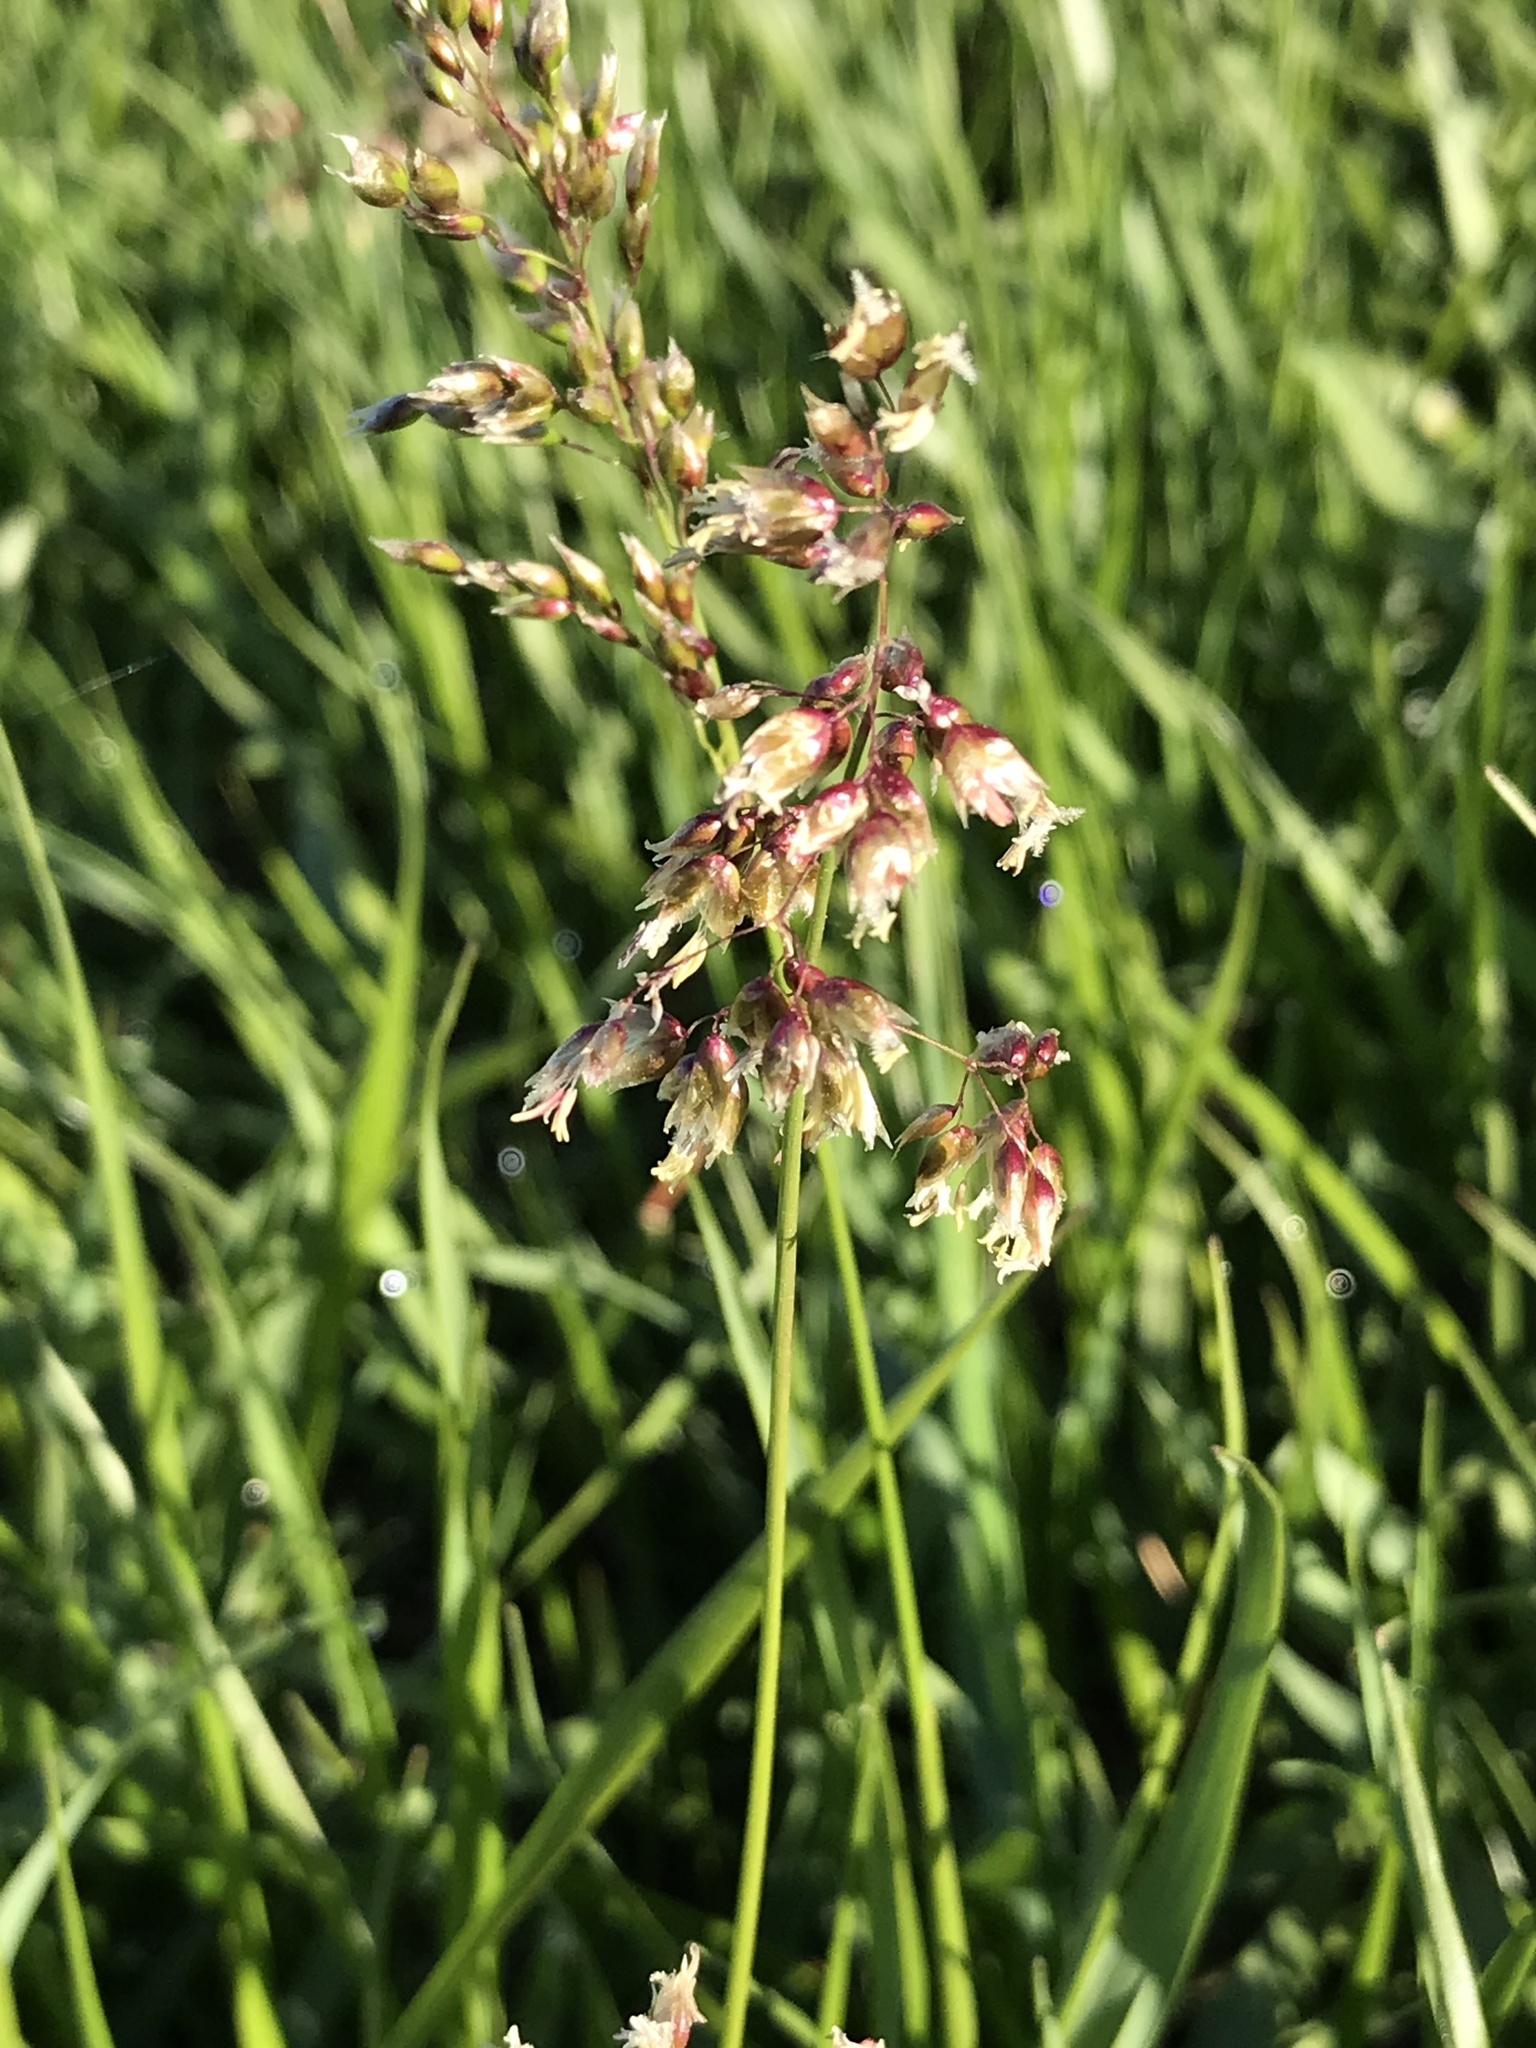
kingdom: Plantae
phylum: Tracheophyta
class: Liliopsida
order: Poales
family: Poaceae
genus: Anthoxanthum
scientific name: Anthoxanthum nitens
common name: Holy grass
